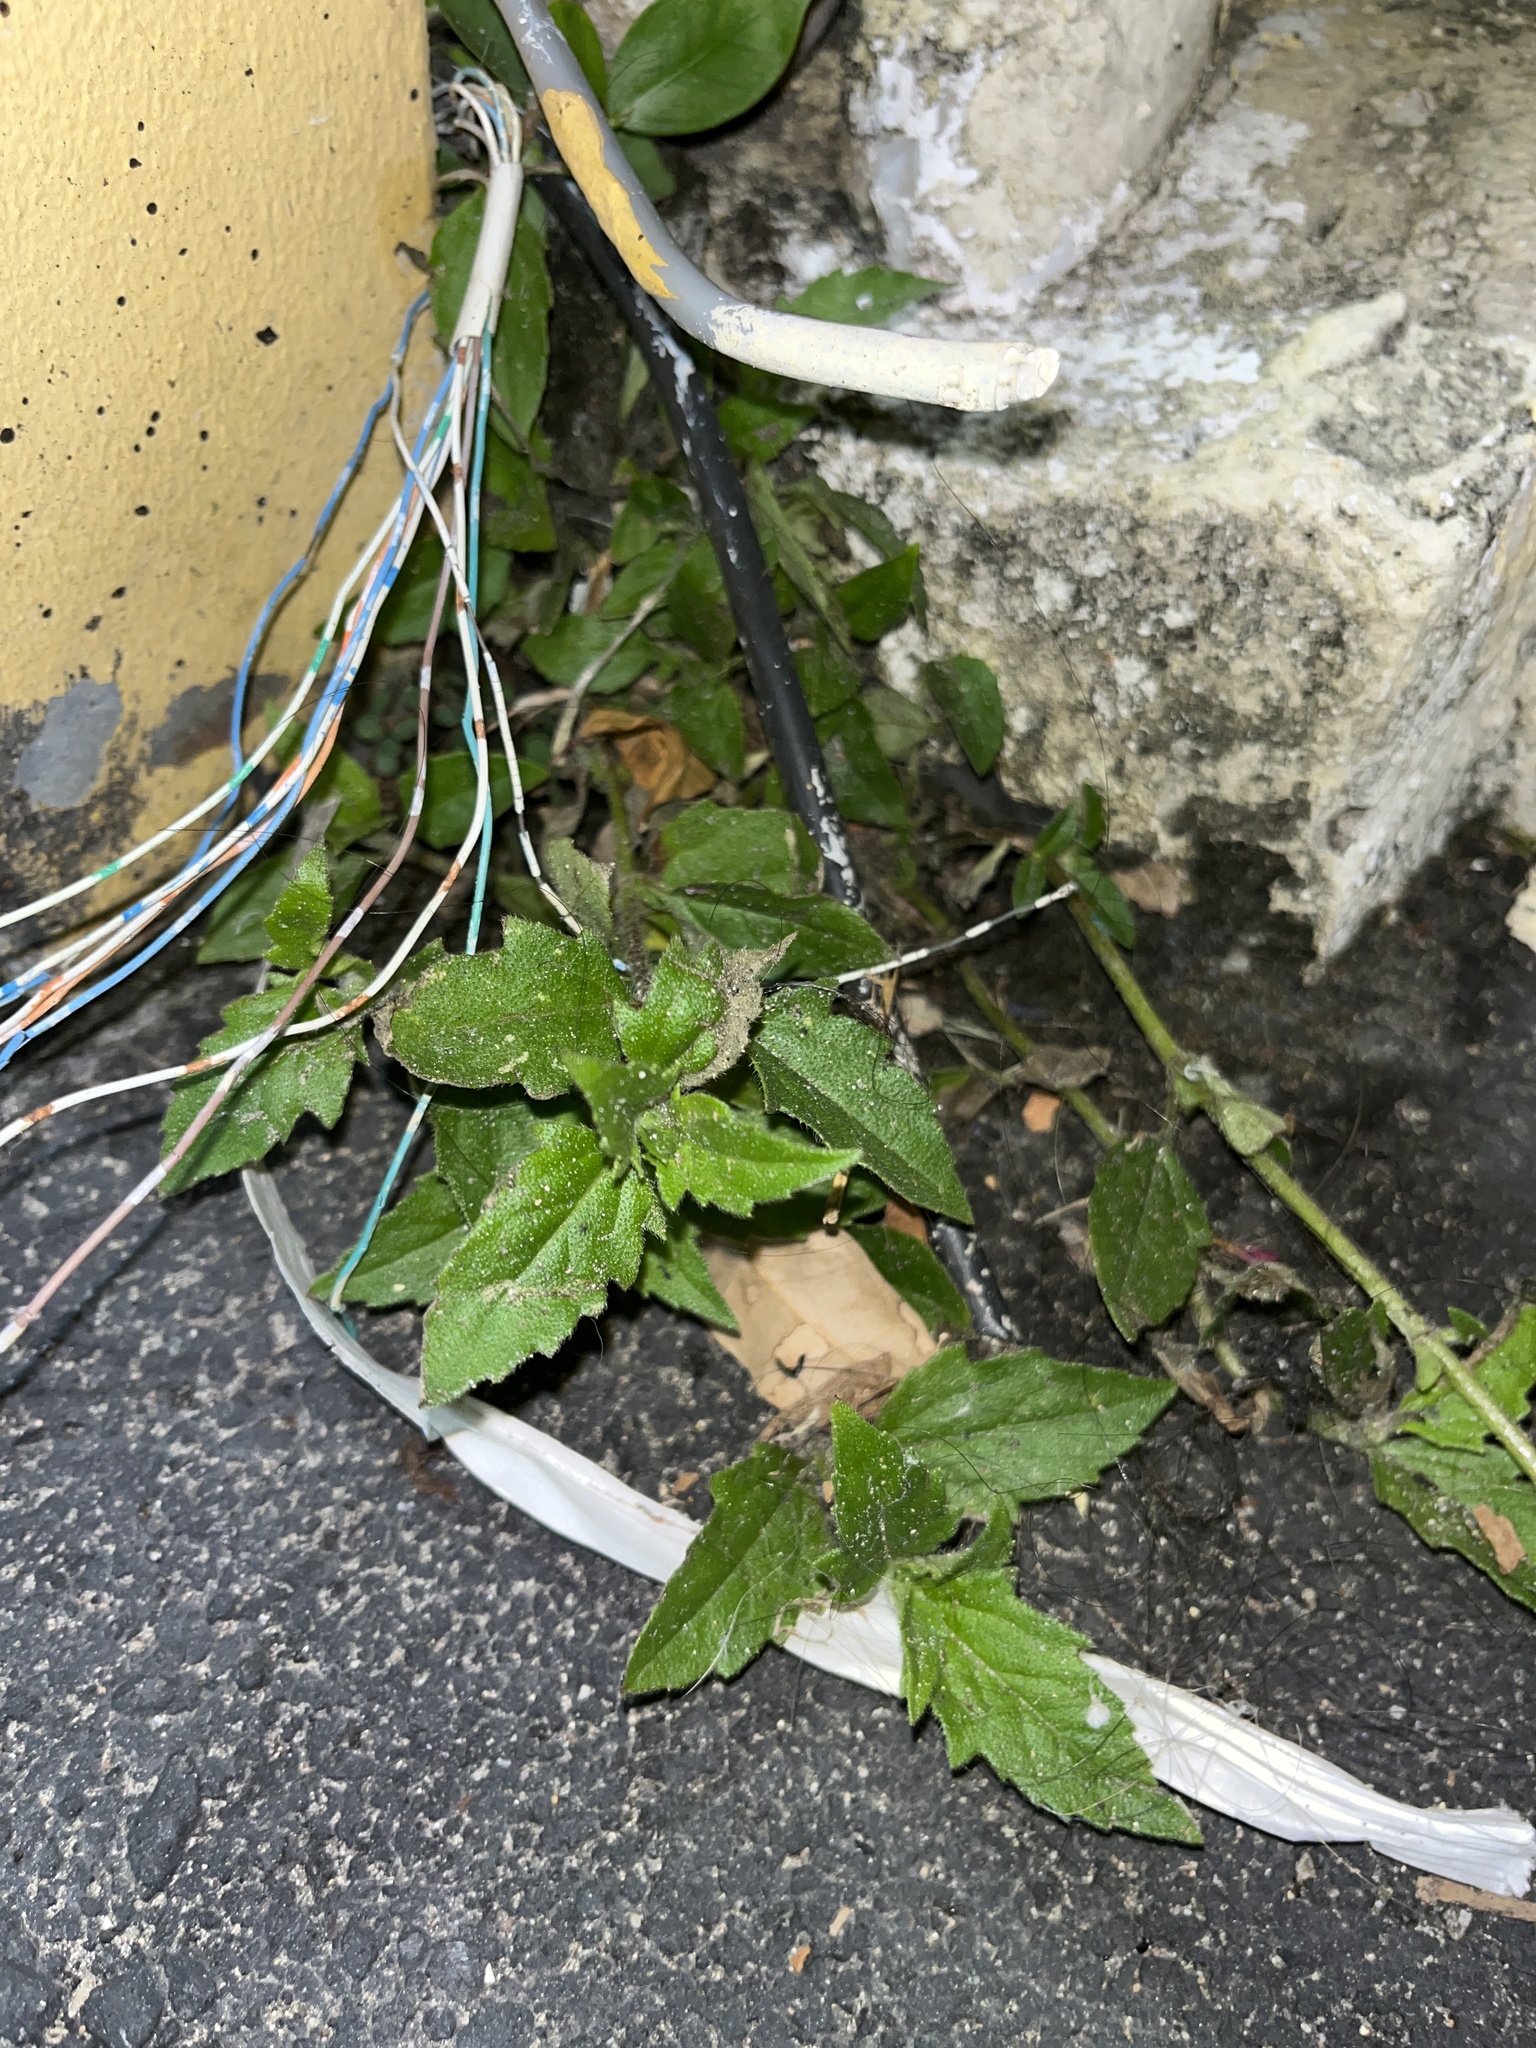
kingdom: Plantae
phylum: Tracheophyta
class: Magnoliopsida
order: Asterales
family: Asteraceae
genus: Tridax
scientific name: Tridax procumbens
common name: Coatbuttons
